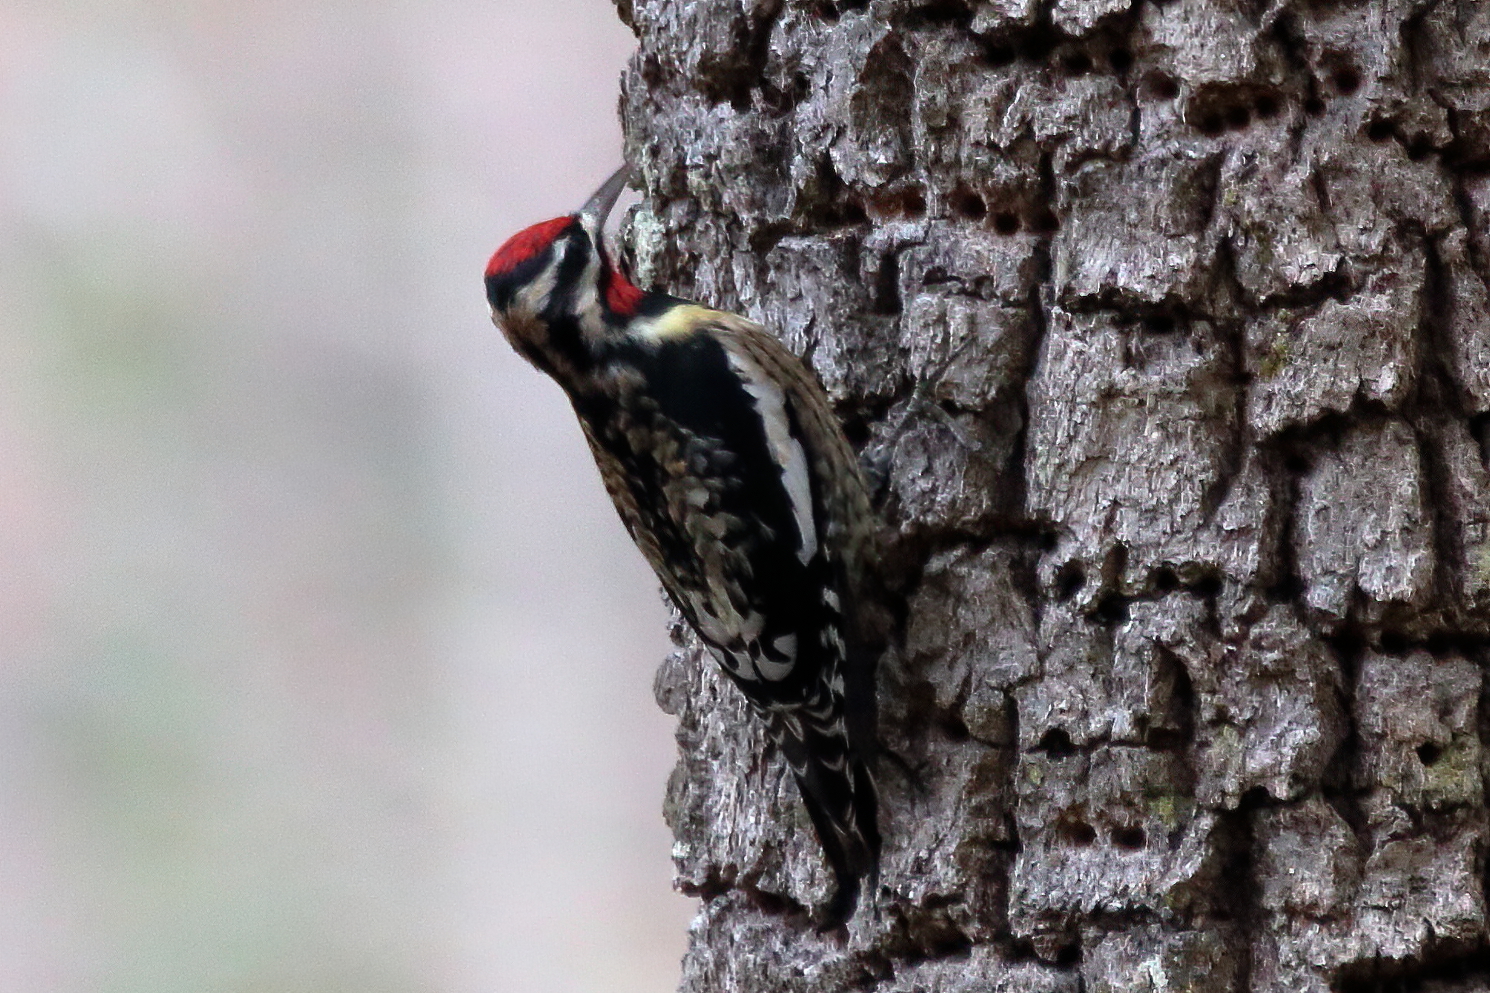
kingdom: Animalia
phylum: Chordata
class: Aves
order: Piciformes
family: Picidae
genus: Sphyrapicus
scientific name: Sphyrapicus varius
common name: Yellow-bellied sapsucker
